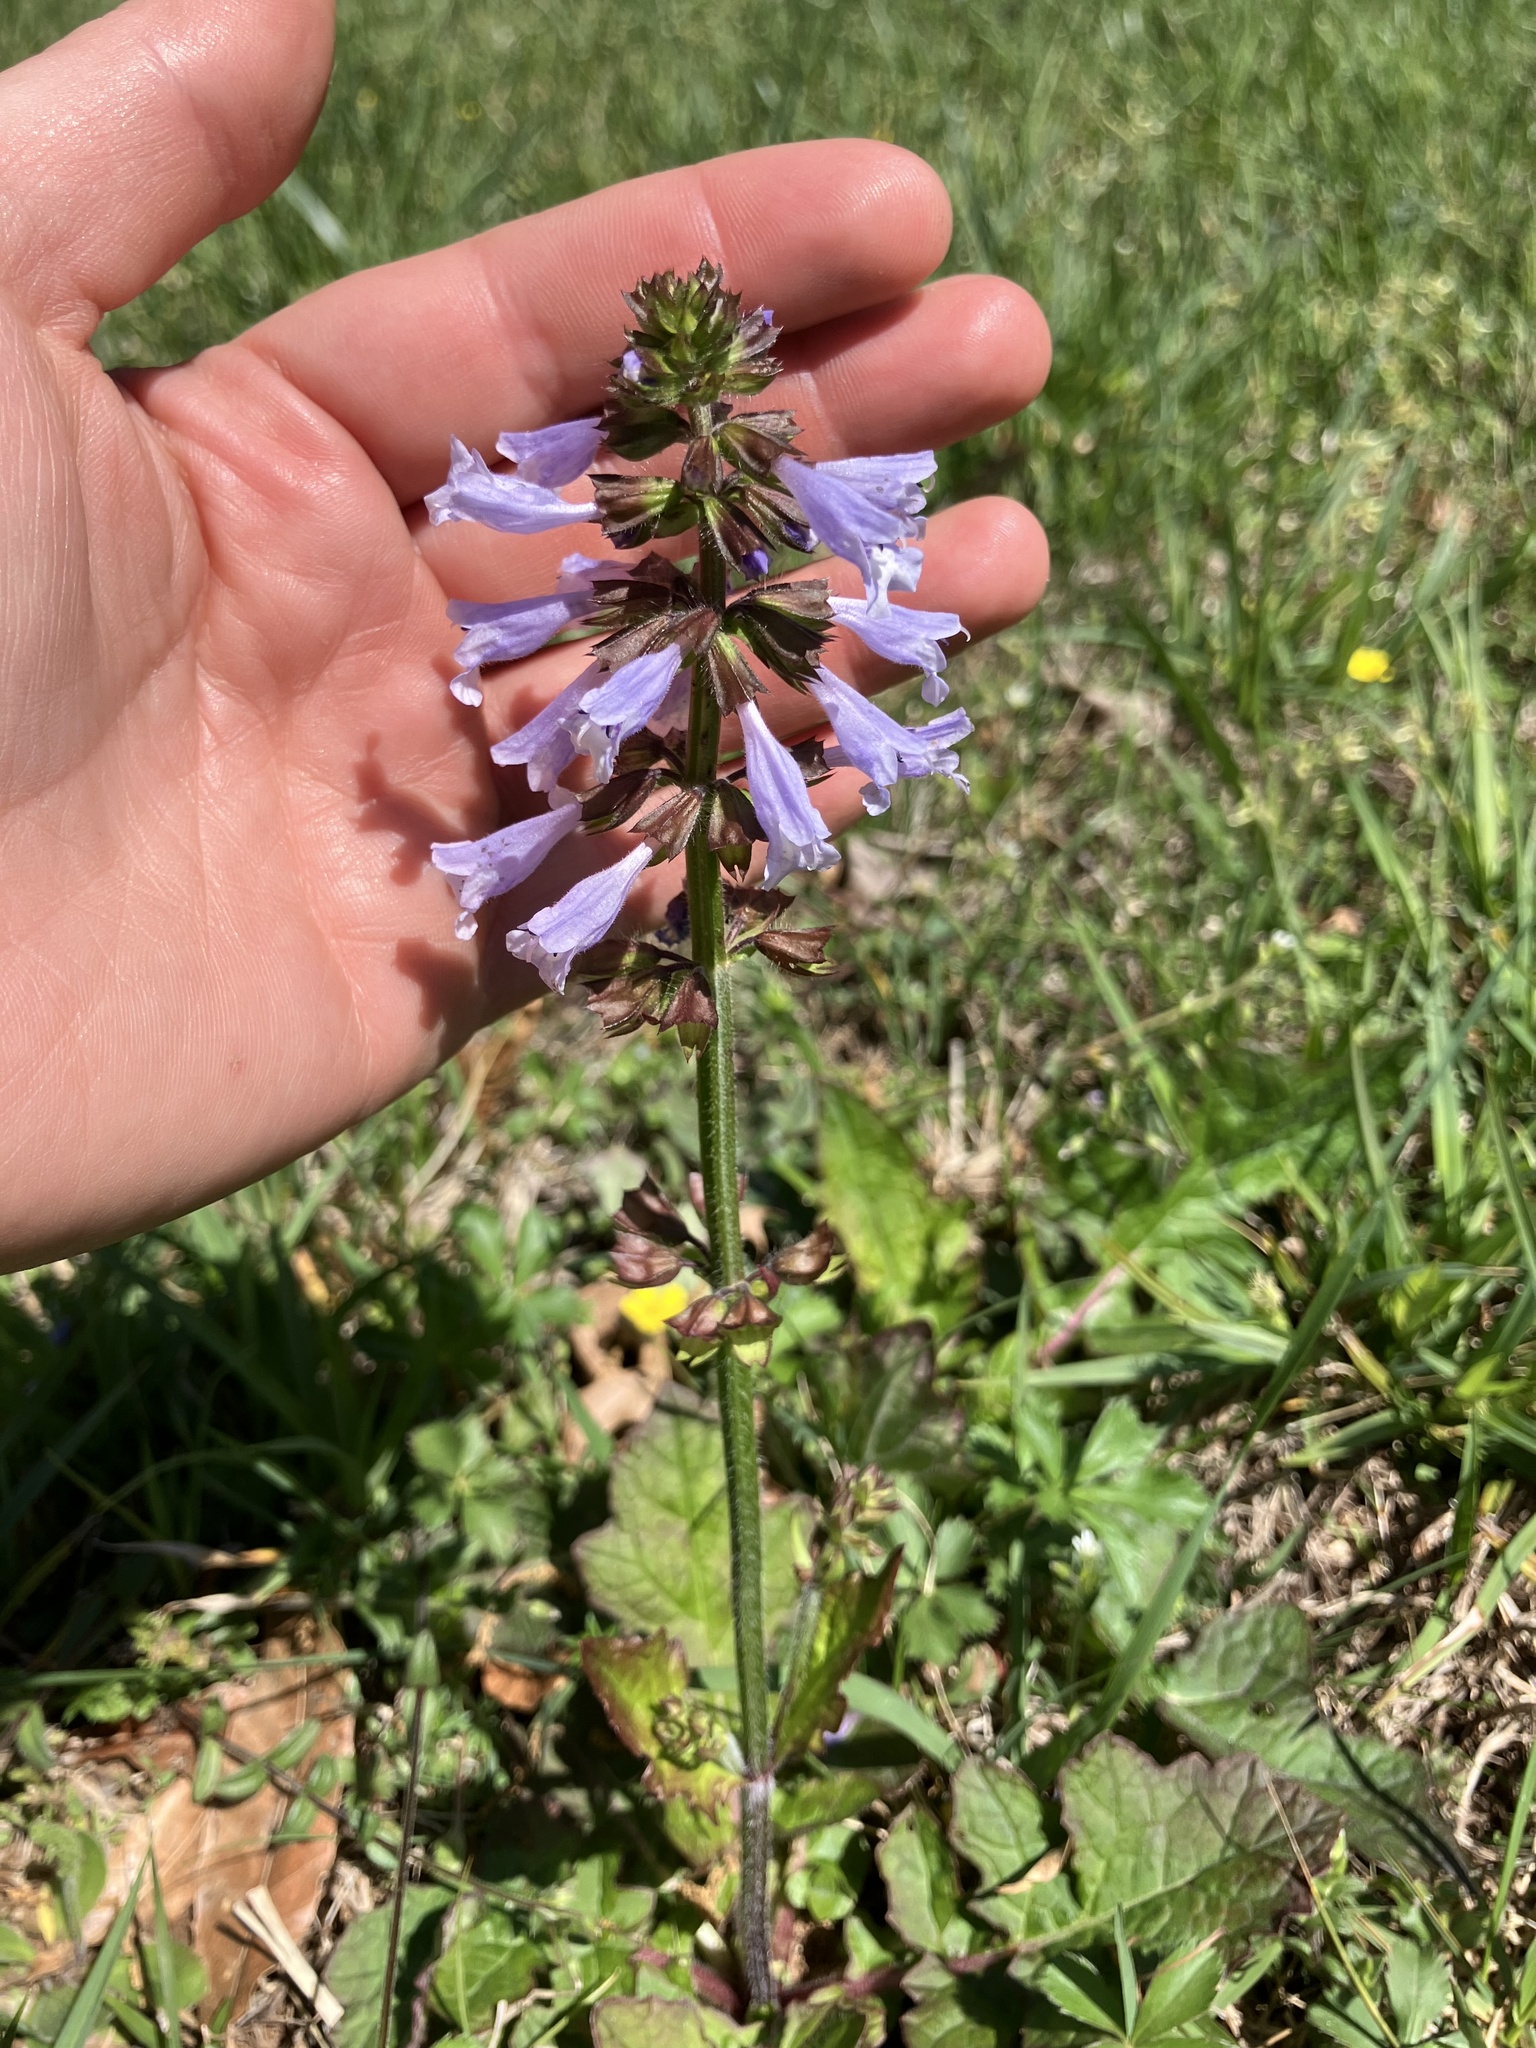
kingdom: Plantae
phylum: Tracheophyta
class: Magnoliopsida
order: Lamiales
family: Lamiaceae
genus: Salvia
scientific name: Salvia lyrata
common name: Cancerweed
